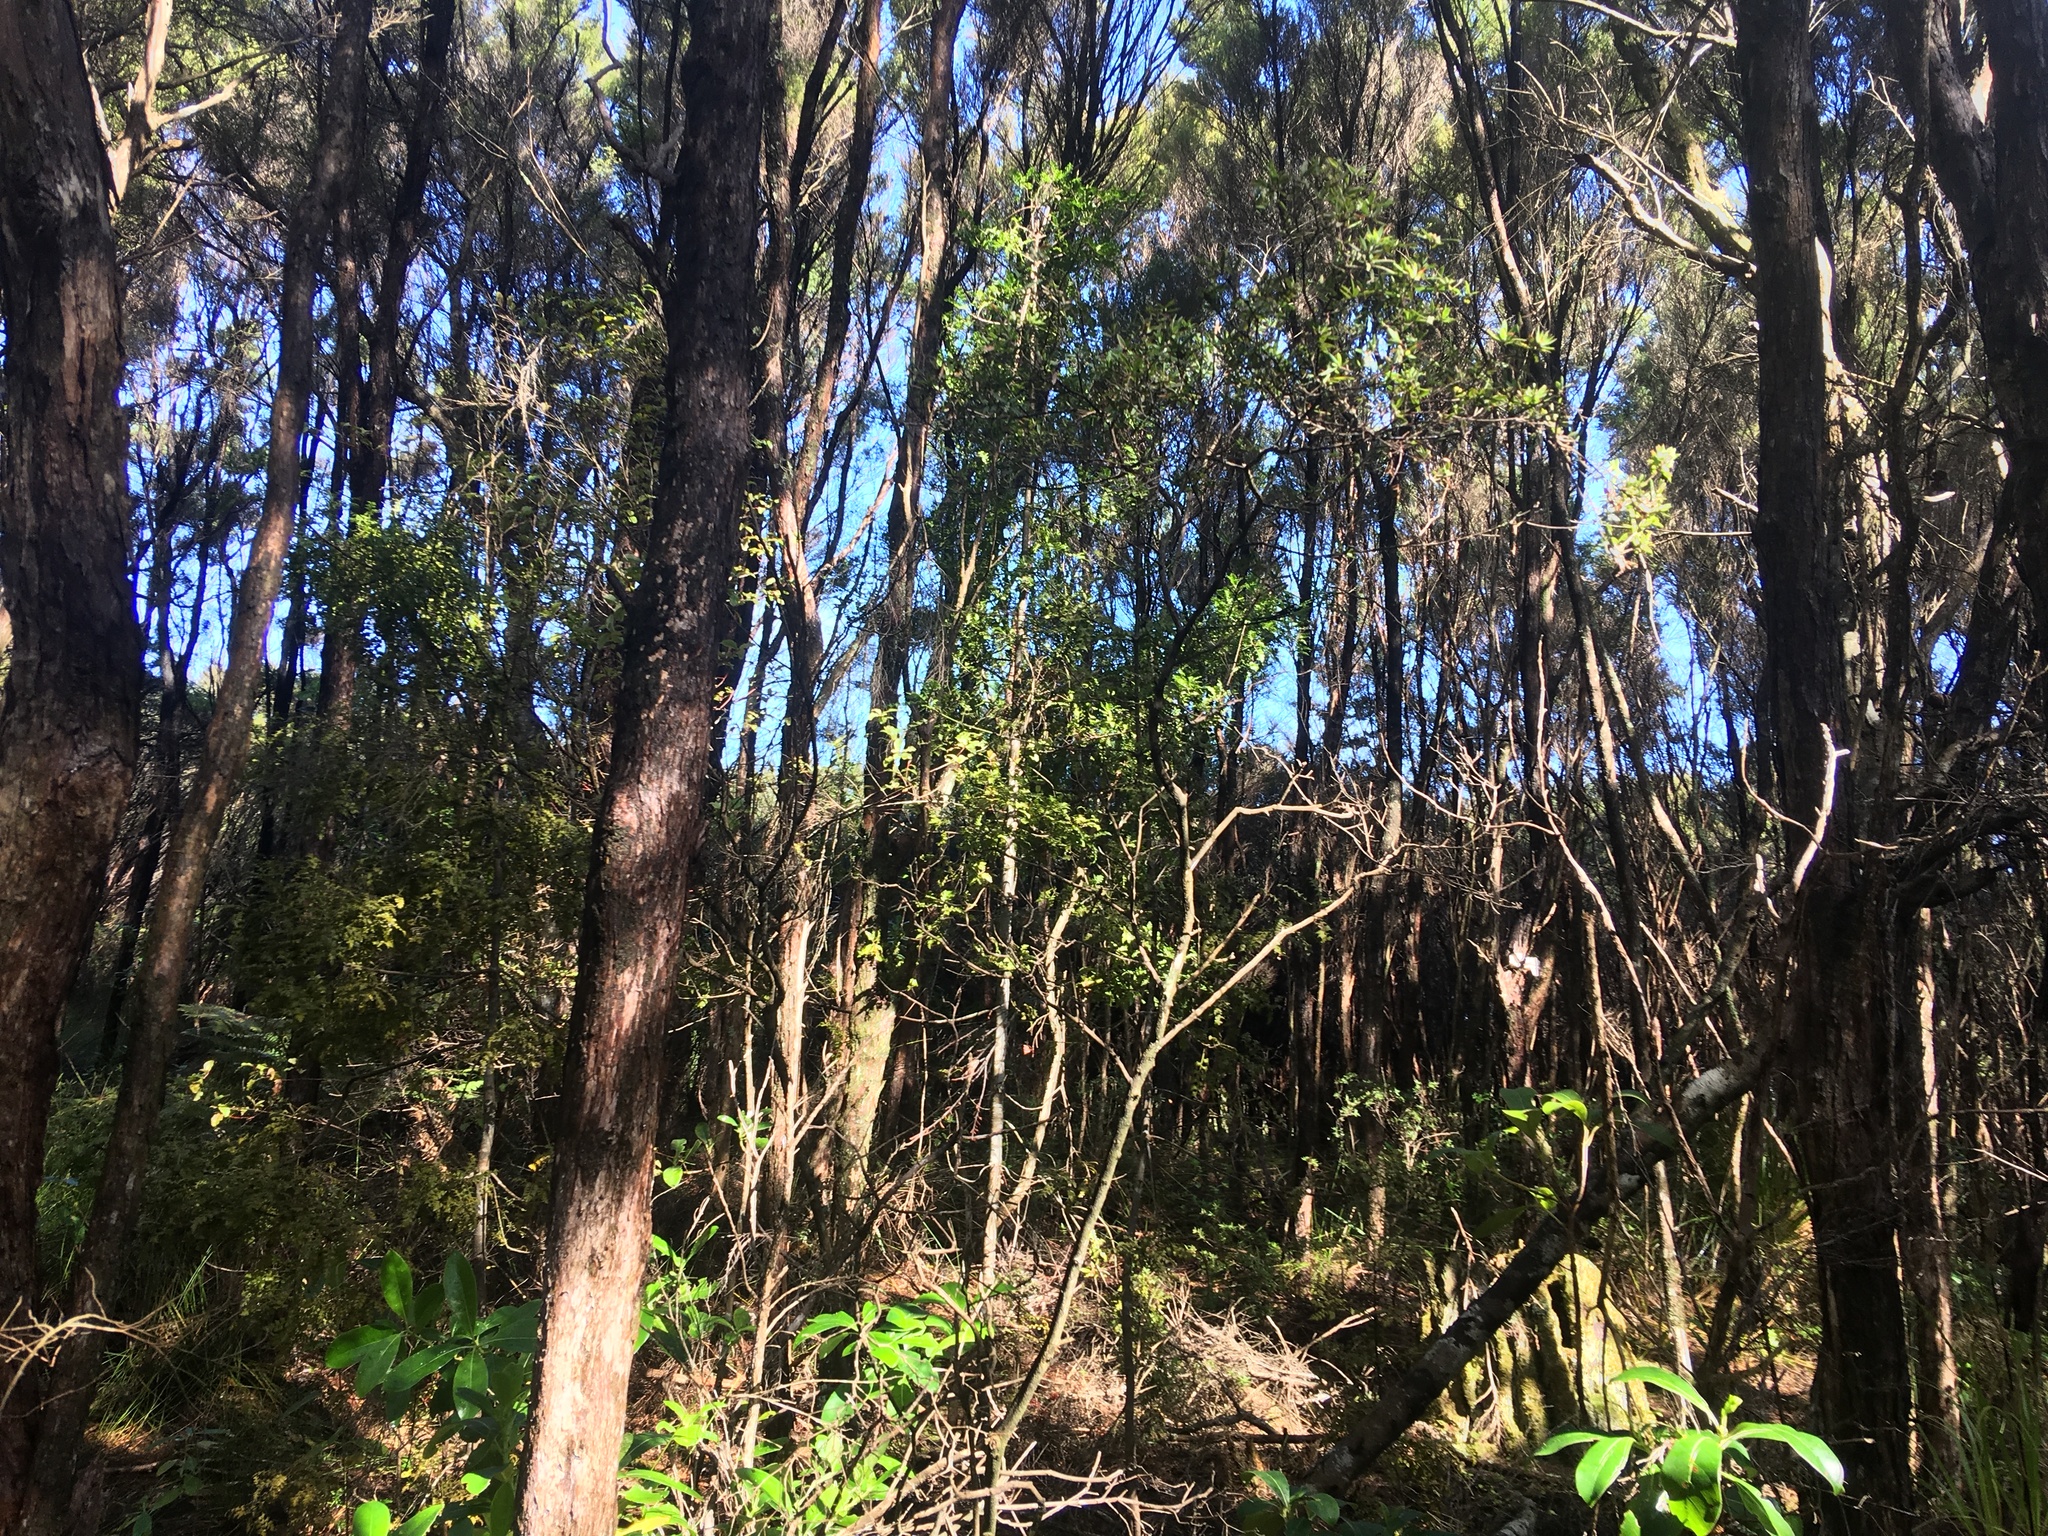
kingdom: Plantae
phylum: Tracheophyta
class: Pinopsida
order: Pinales
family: Phyllocladaceae
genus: Phyllocladus
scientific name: Phyllocladus trichomanoides
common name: Celery pine
